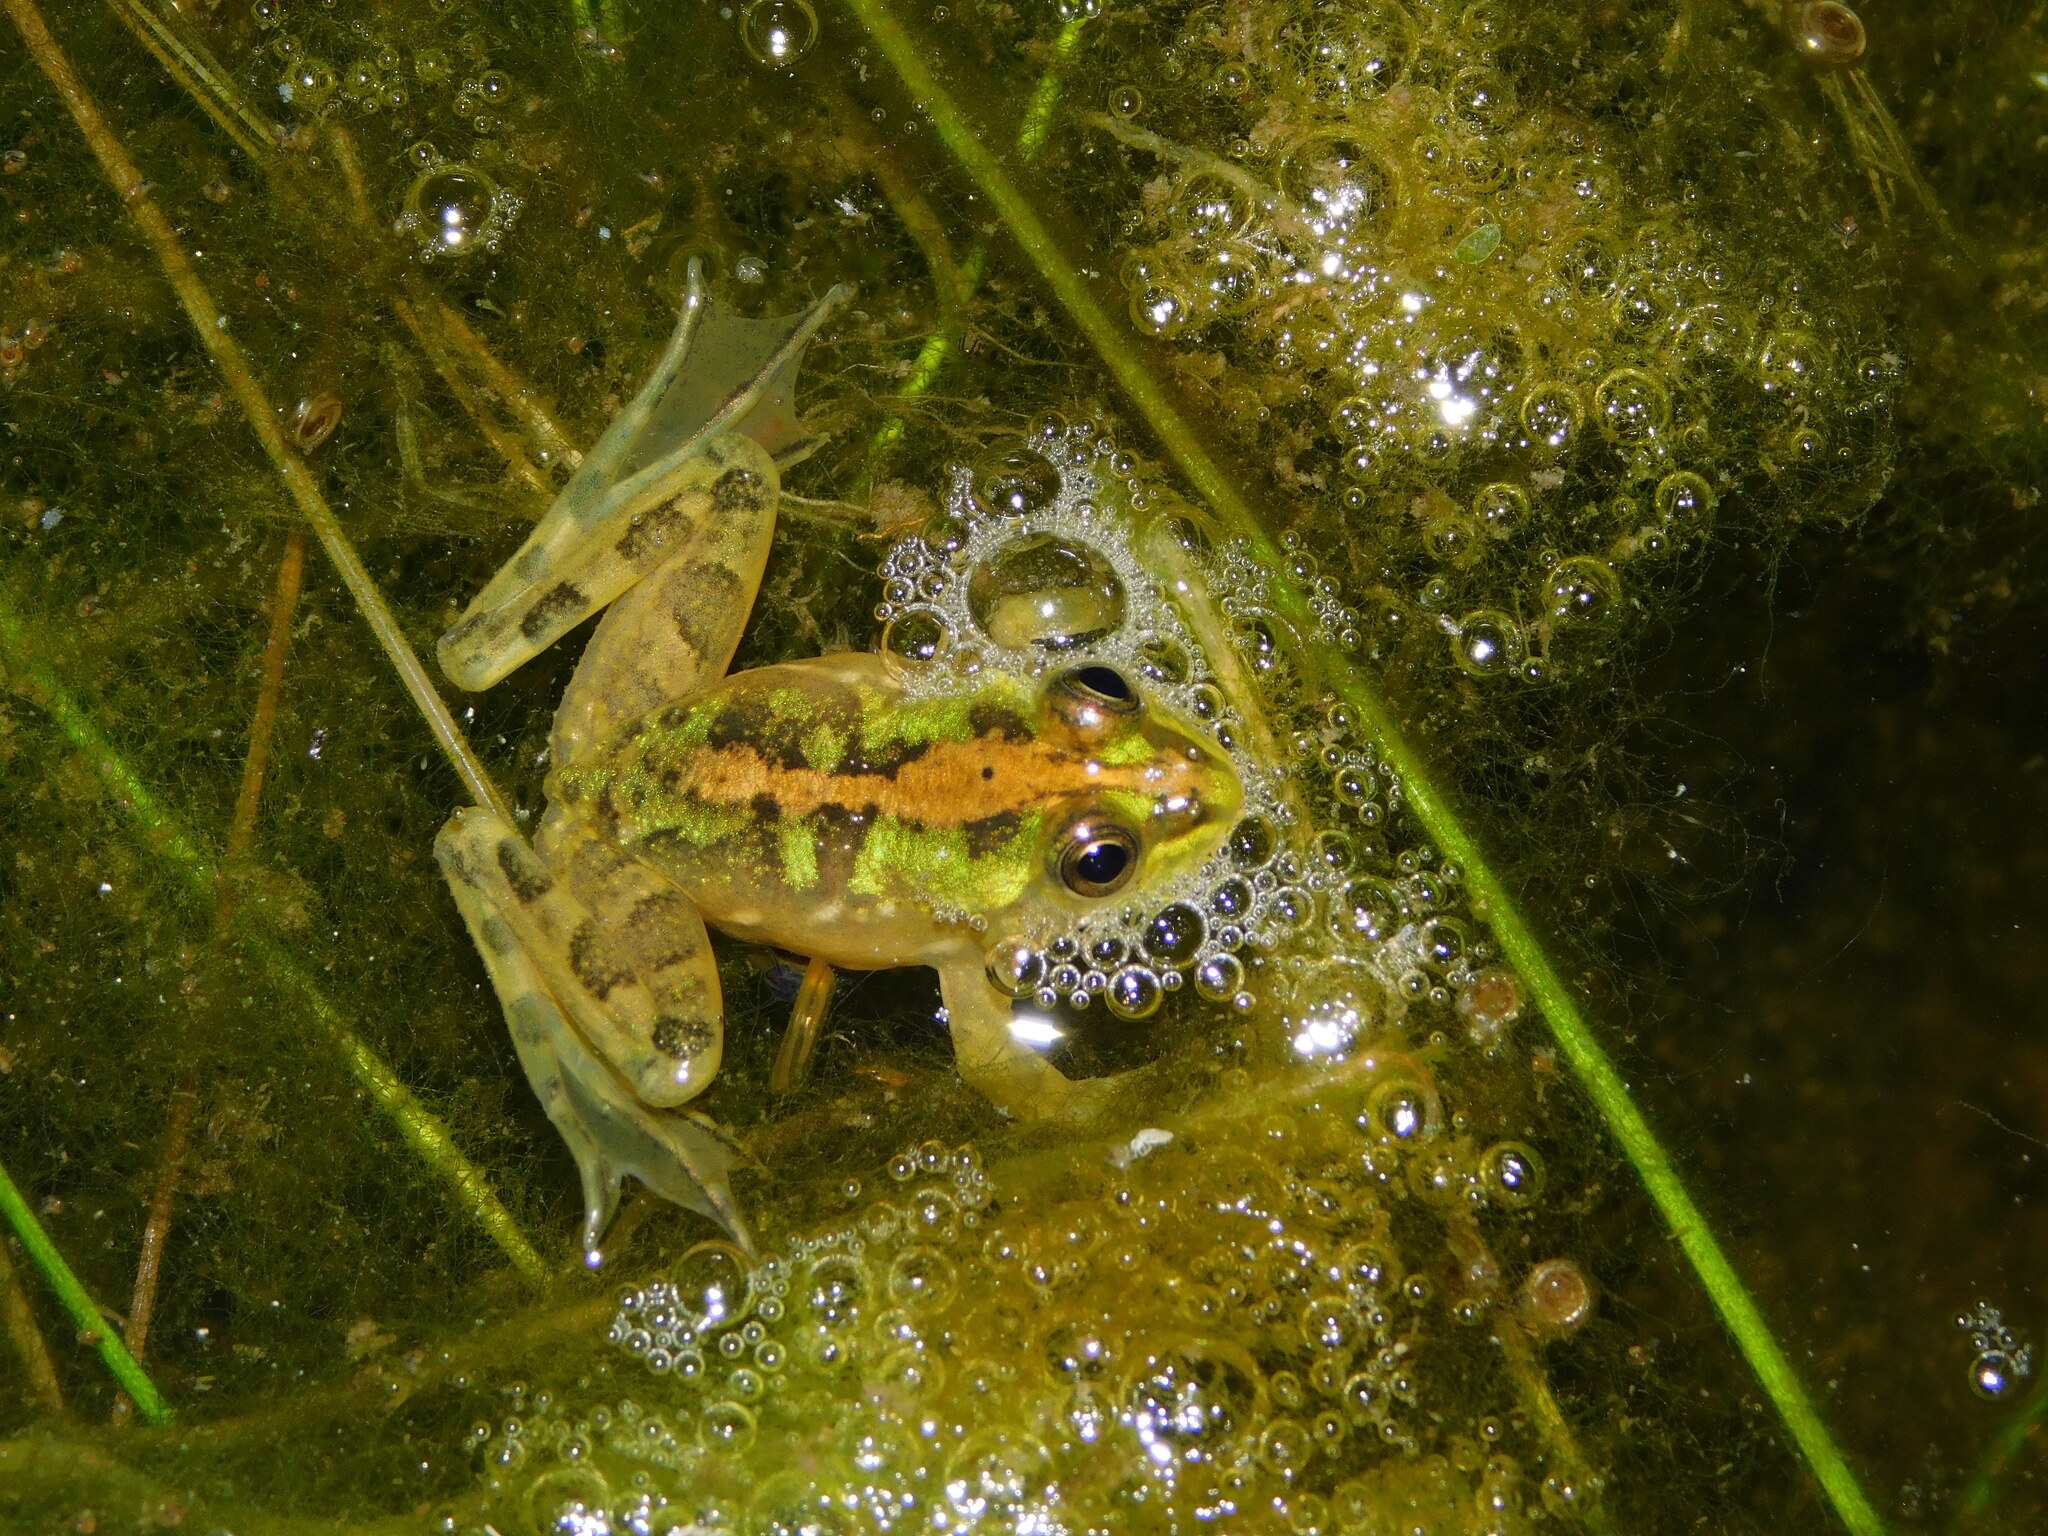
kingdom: Animalia
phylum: Chordata
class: Amphibia
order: Anura
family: Hylidae
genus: Pseudis
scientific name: Pseudis minuta
